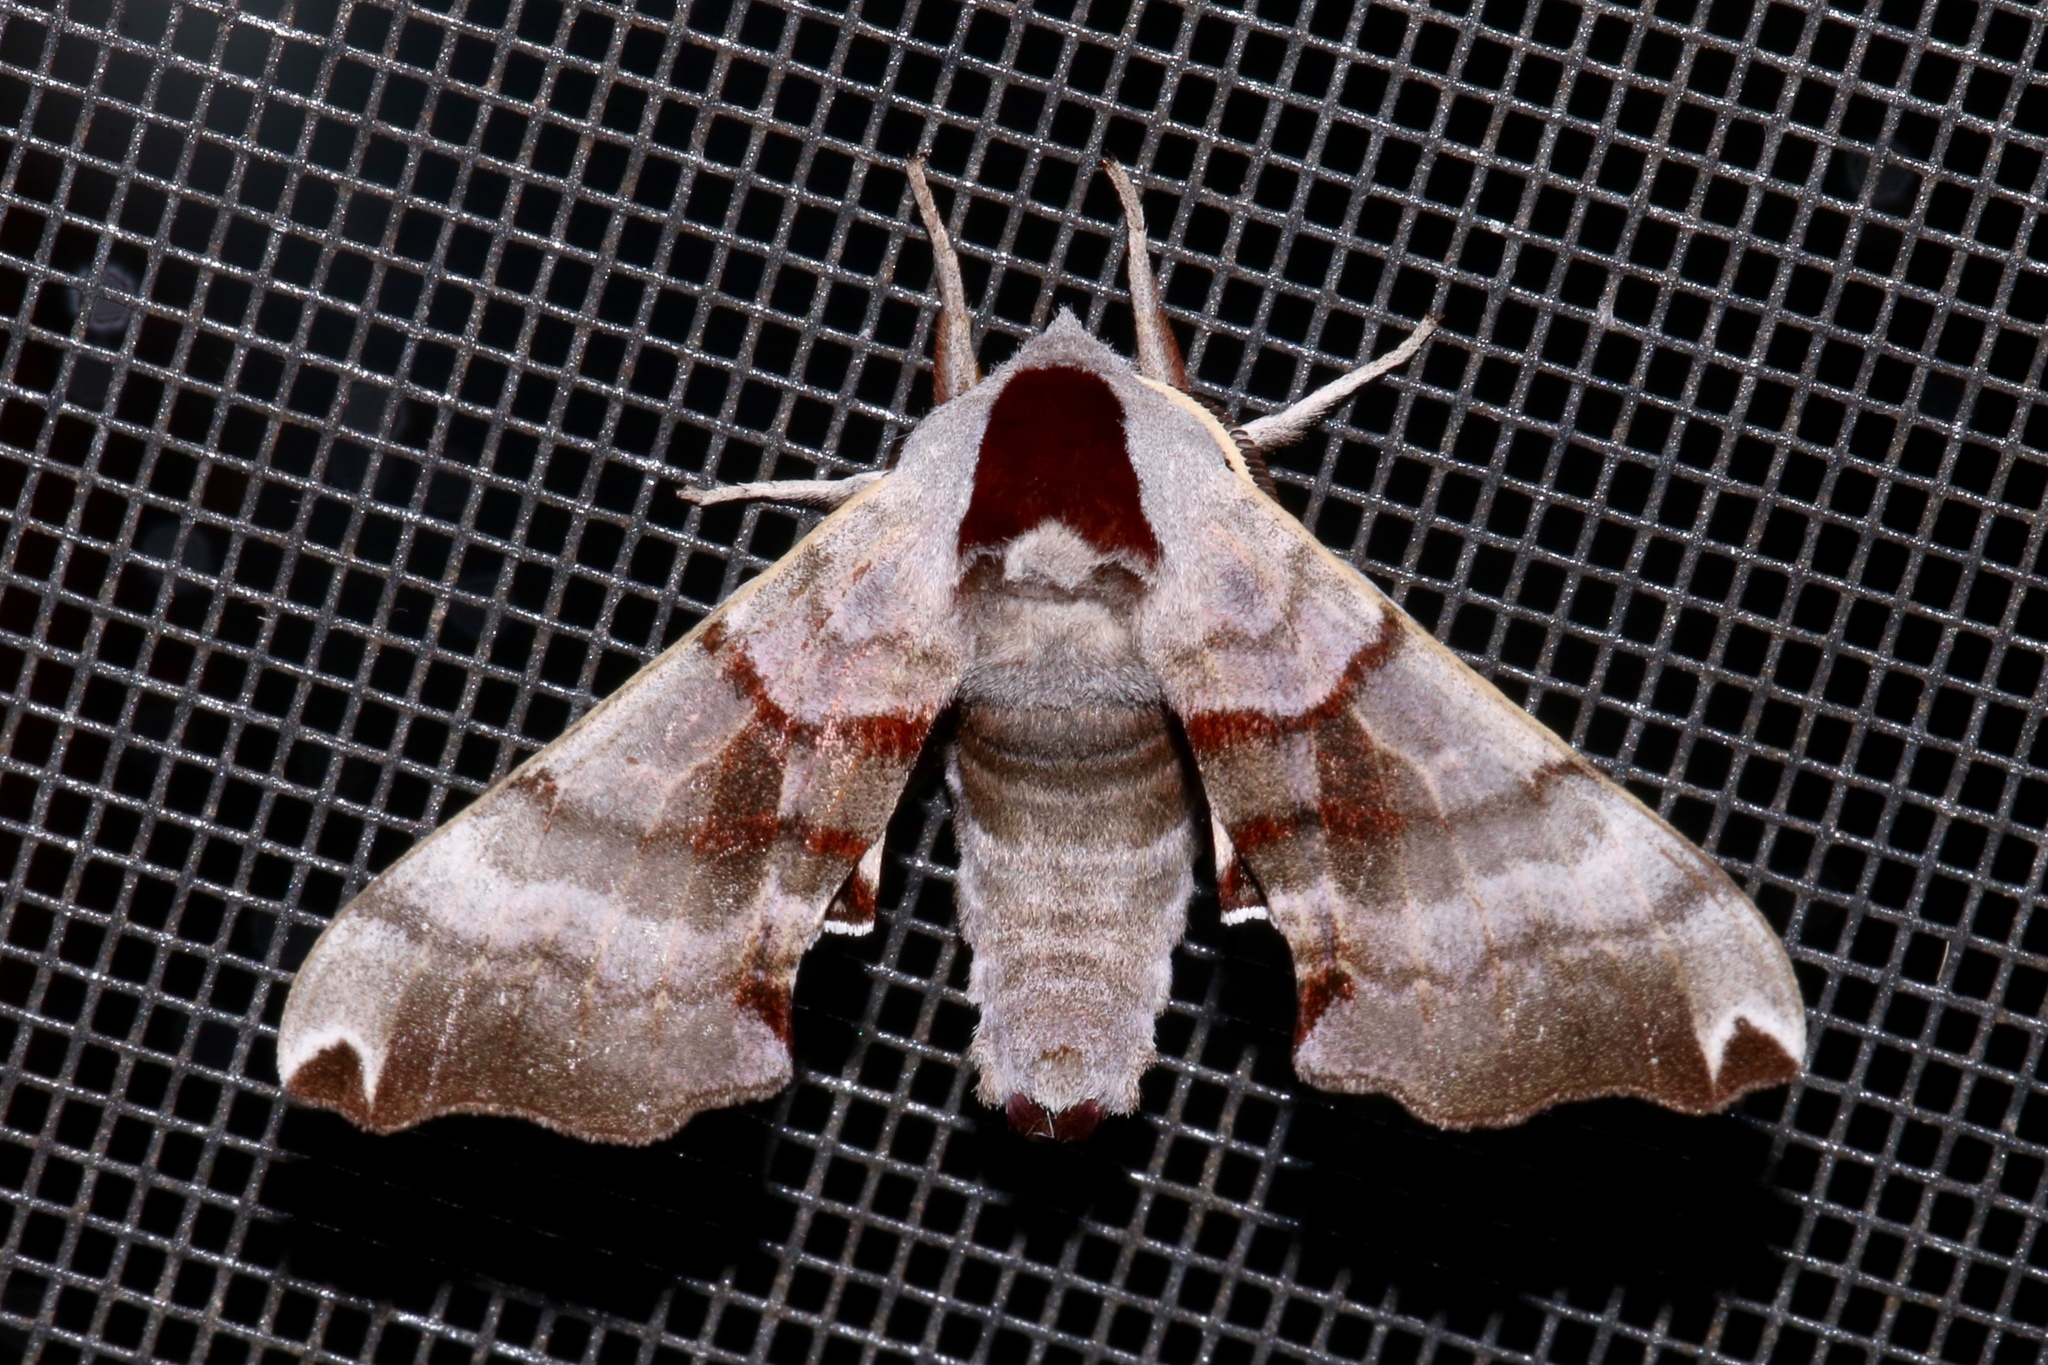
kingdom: Animalia
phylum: Arthropoda
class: Insecta
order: Lepidoptera
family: Sphingidae
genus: Smerinthus
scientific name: Smerinthus jamaicensis
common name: Twin spotted sphinx
